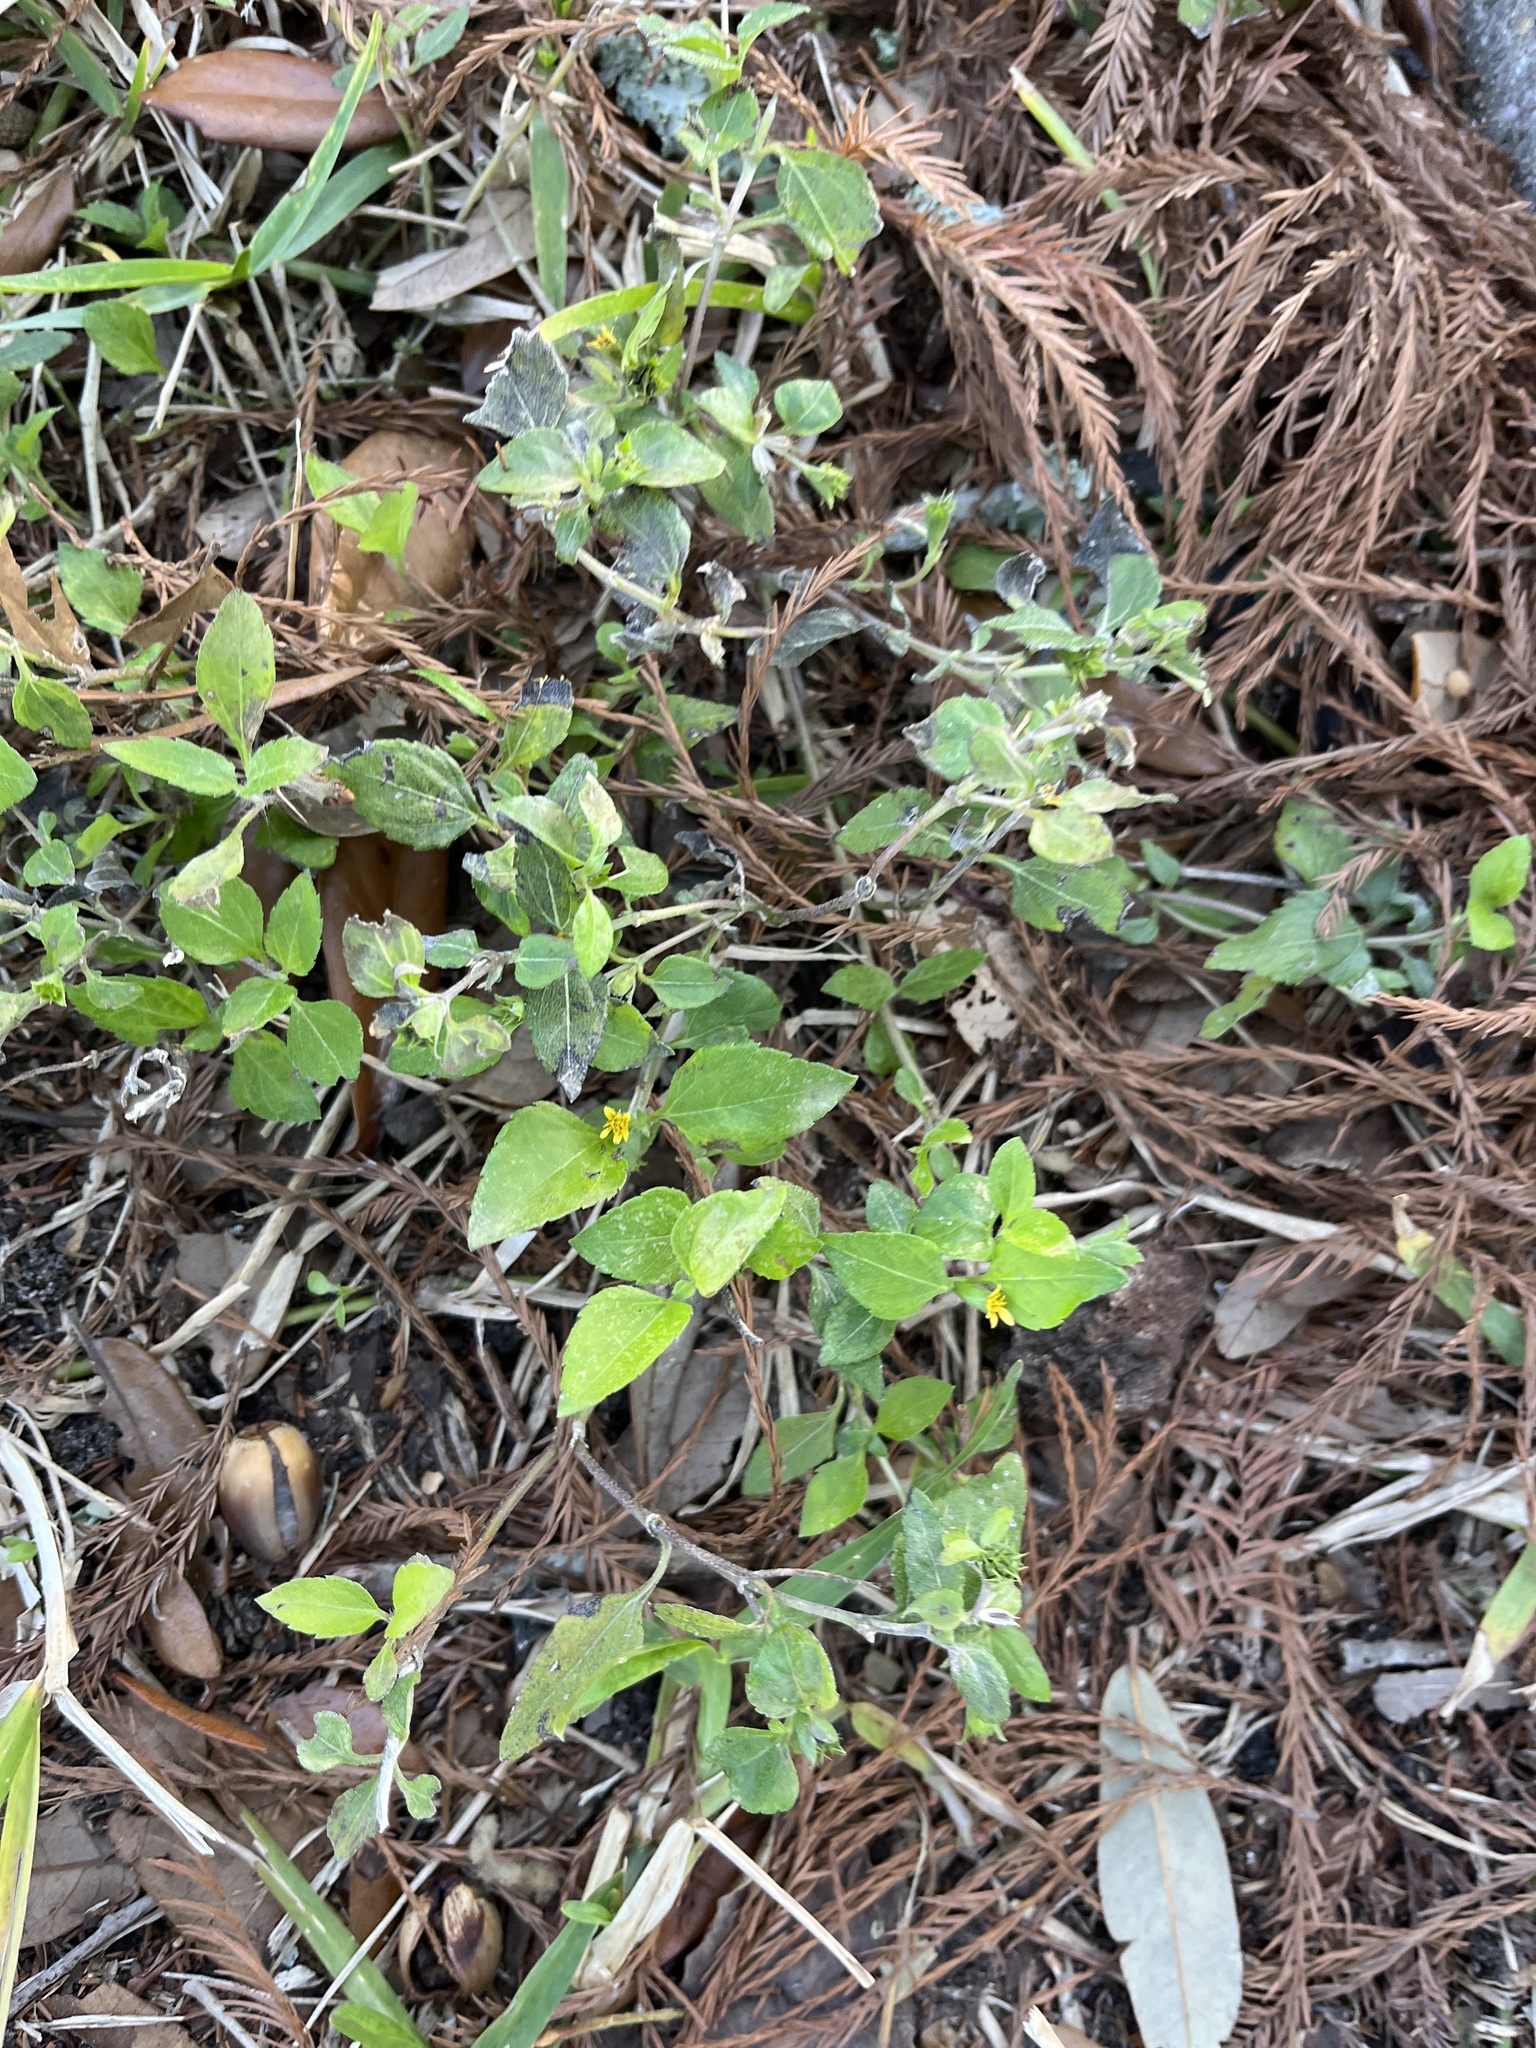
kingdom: Plantae
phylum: Tracheophyta
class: Magnoliopsida
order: Asterales
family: Asteraceae
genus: Calyptocarpus
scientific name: Calyptocarpus vialis
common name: Straggler daisy
